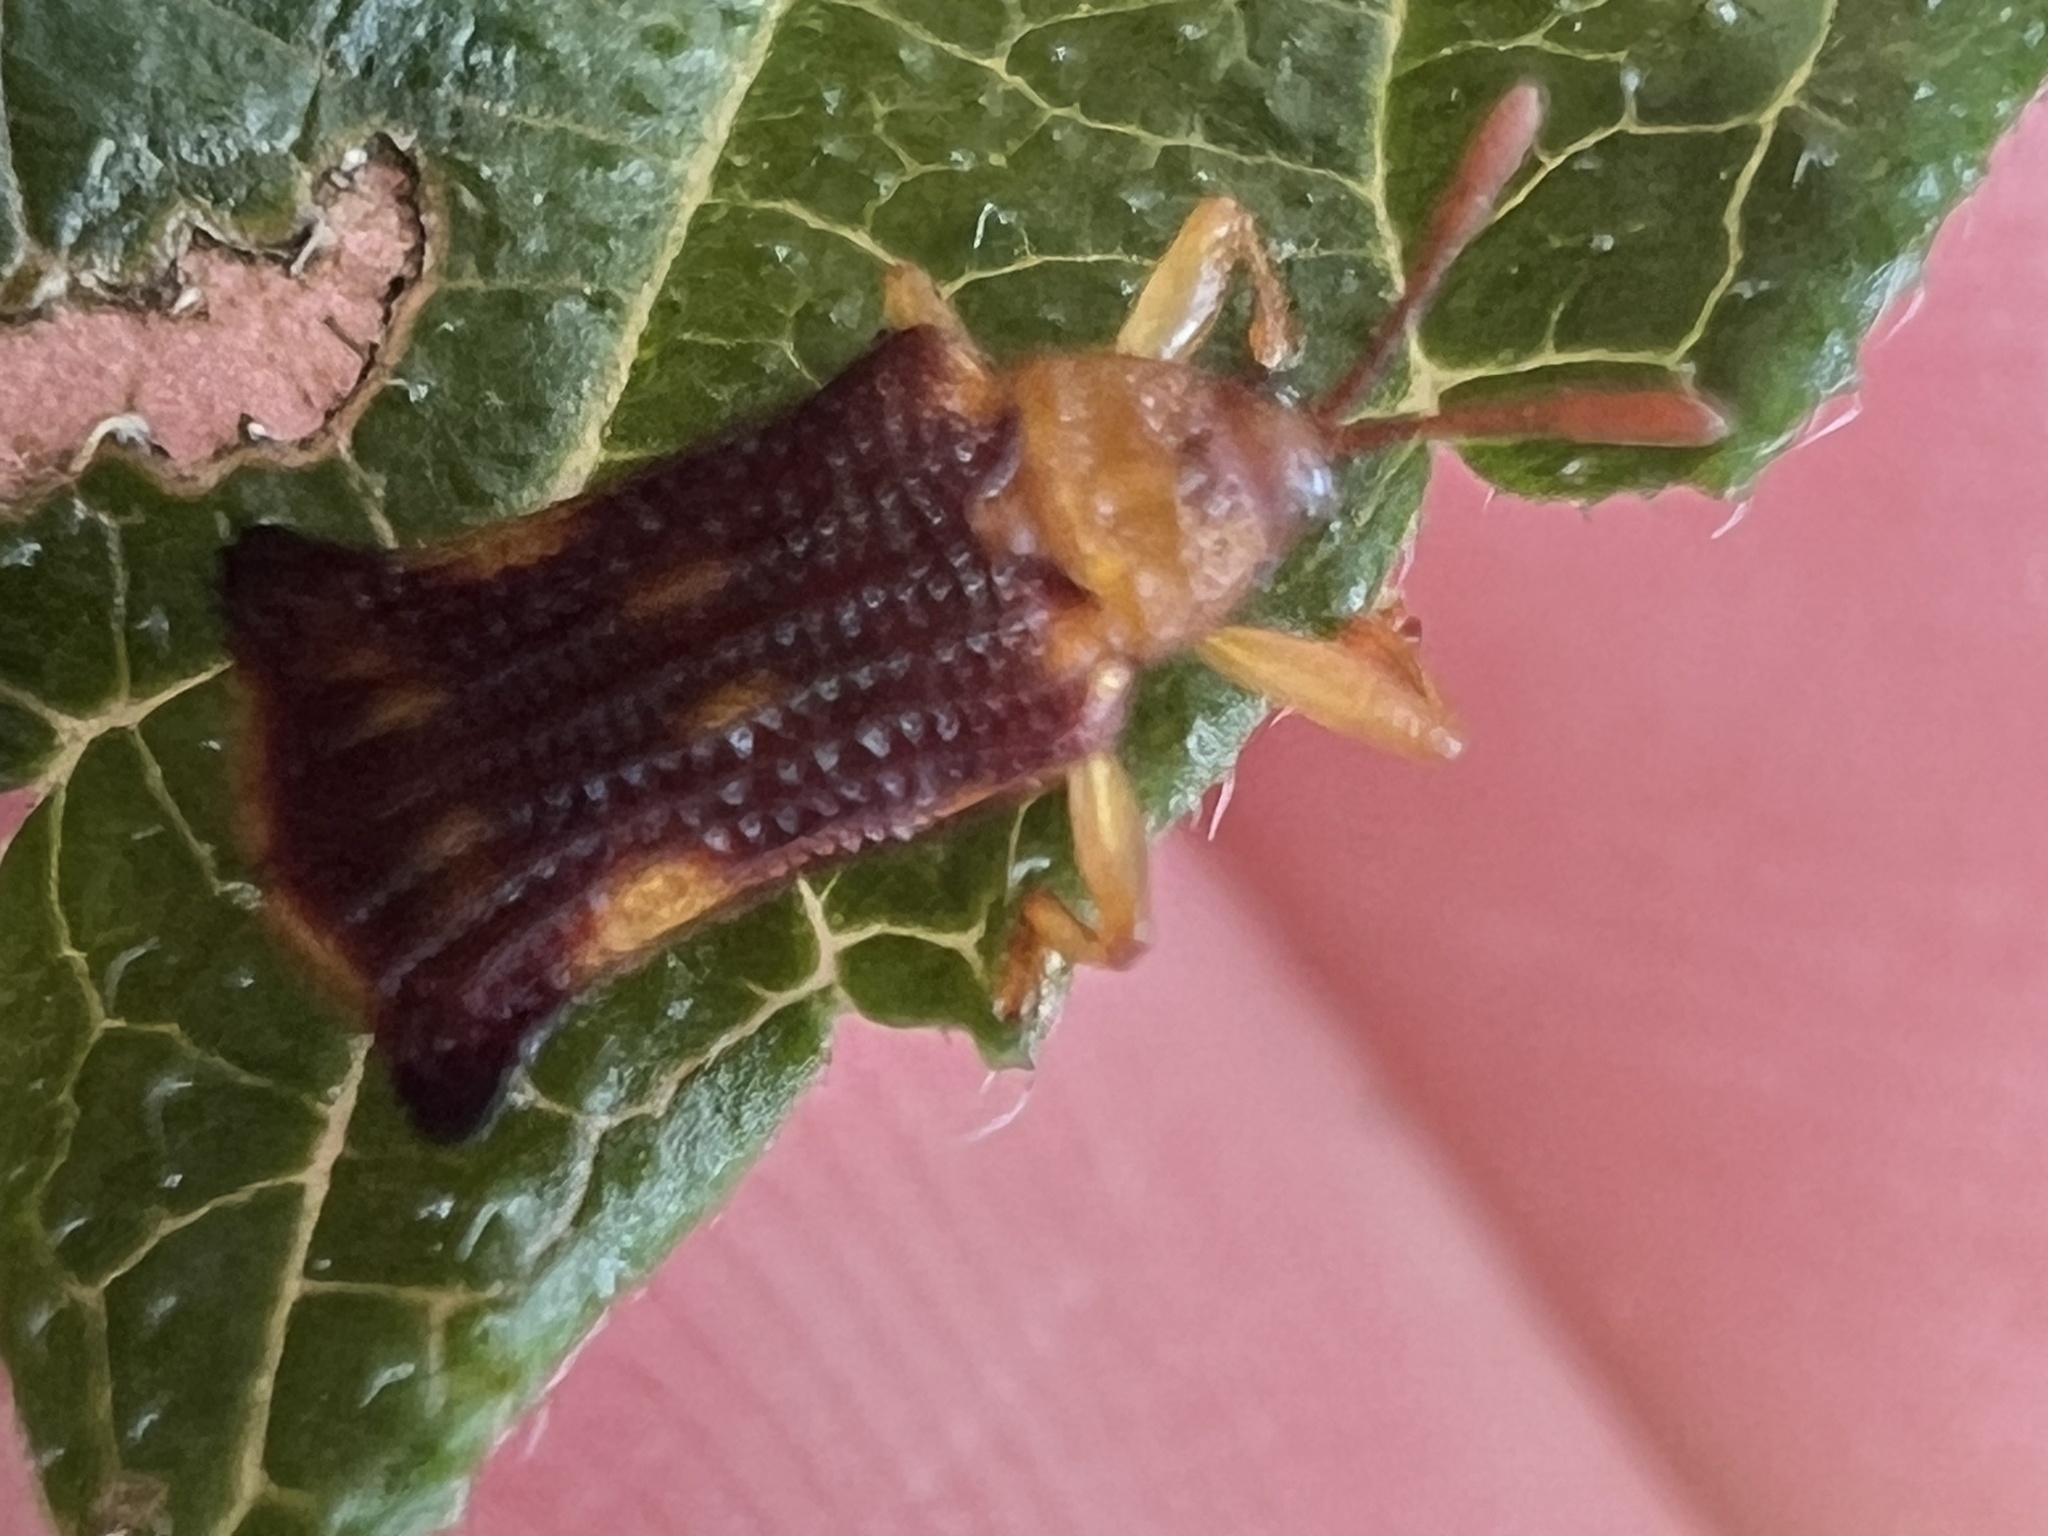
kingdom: Animalia
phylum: Arthropoda
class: Insecta
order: Coleoptera
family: Chrysomelidae
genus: Uroplata
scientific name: Uroplata fulvopustulata
